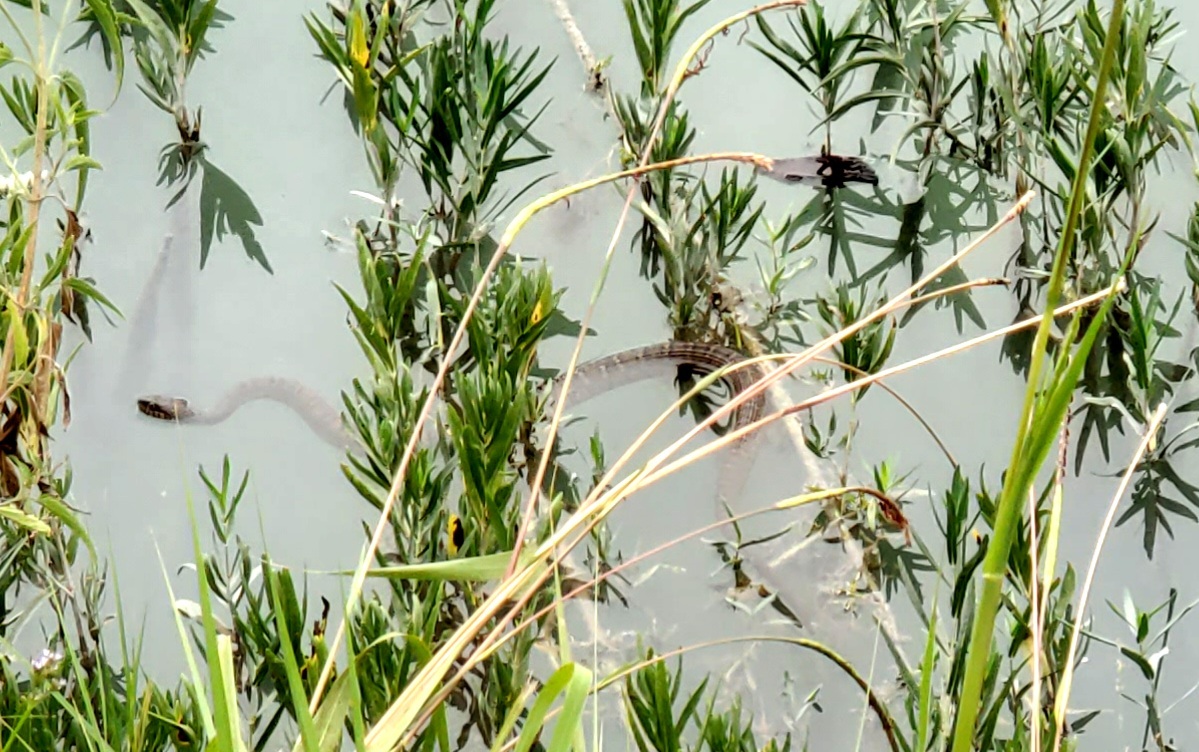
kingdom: Animalia
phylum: Chordata
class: Squamata
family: Colubridae
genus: Nerodia
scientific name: Nerodia erythrogaster
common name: Plainbelly water snake
